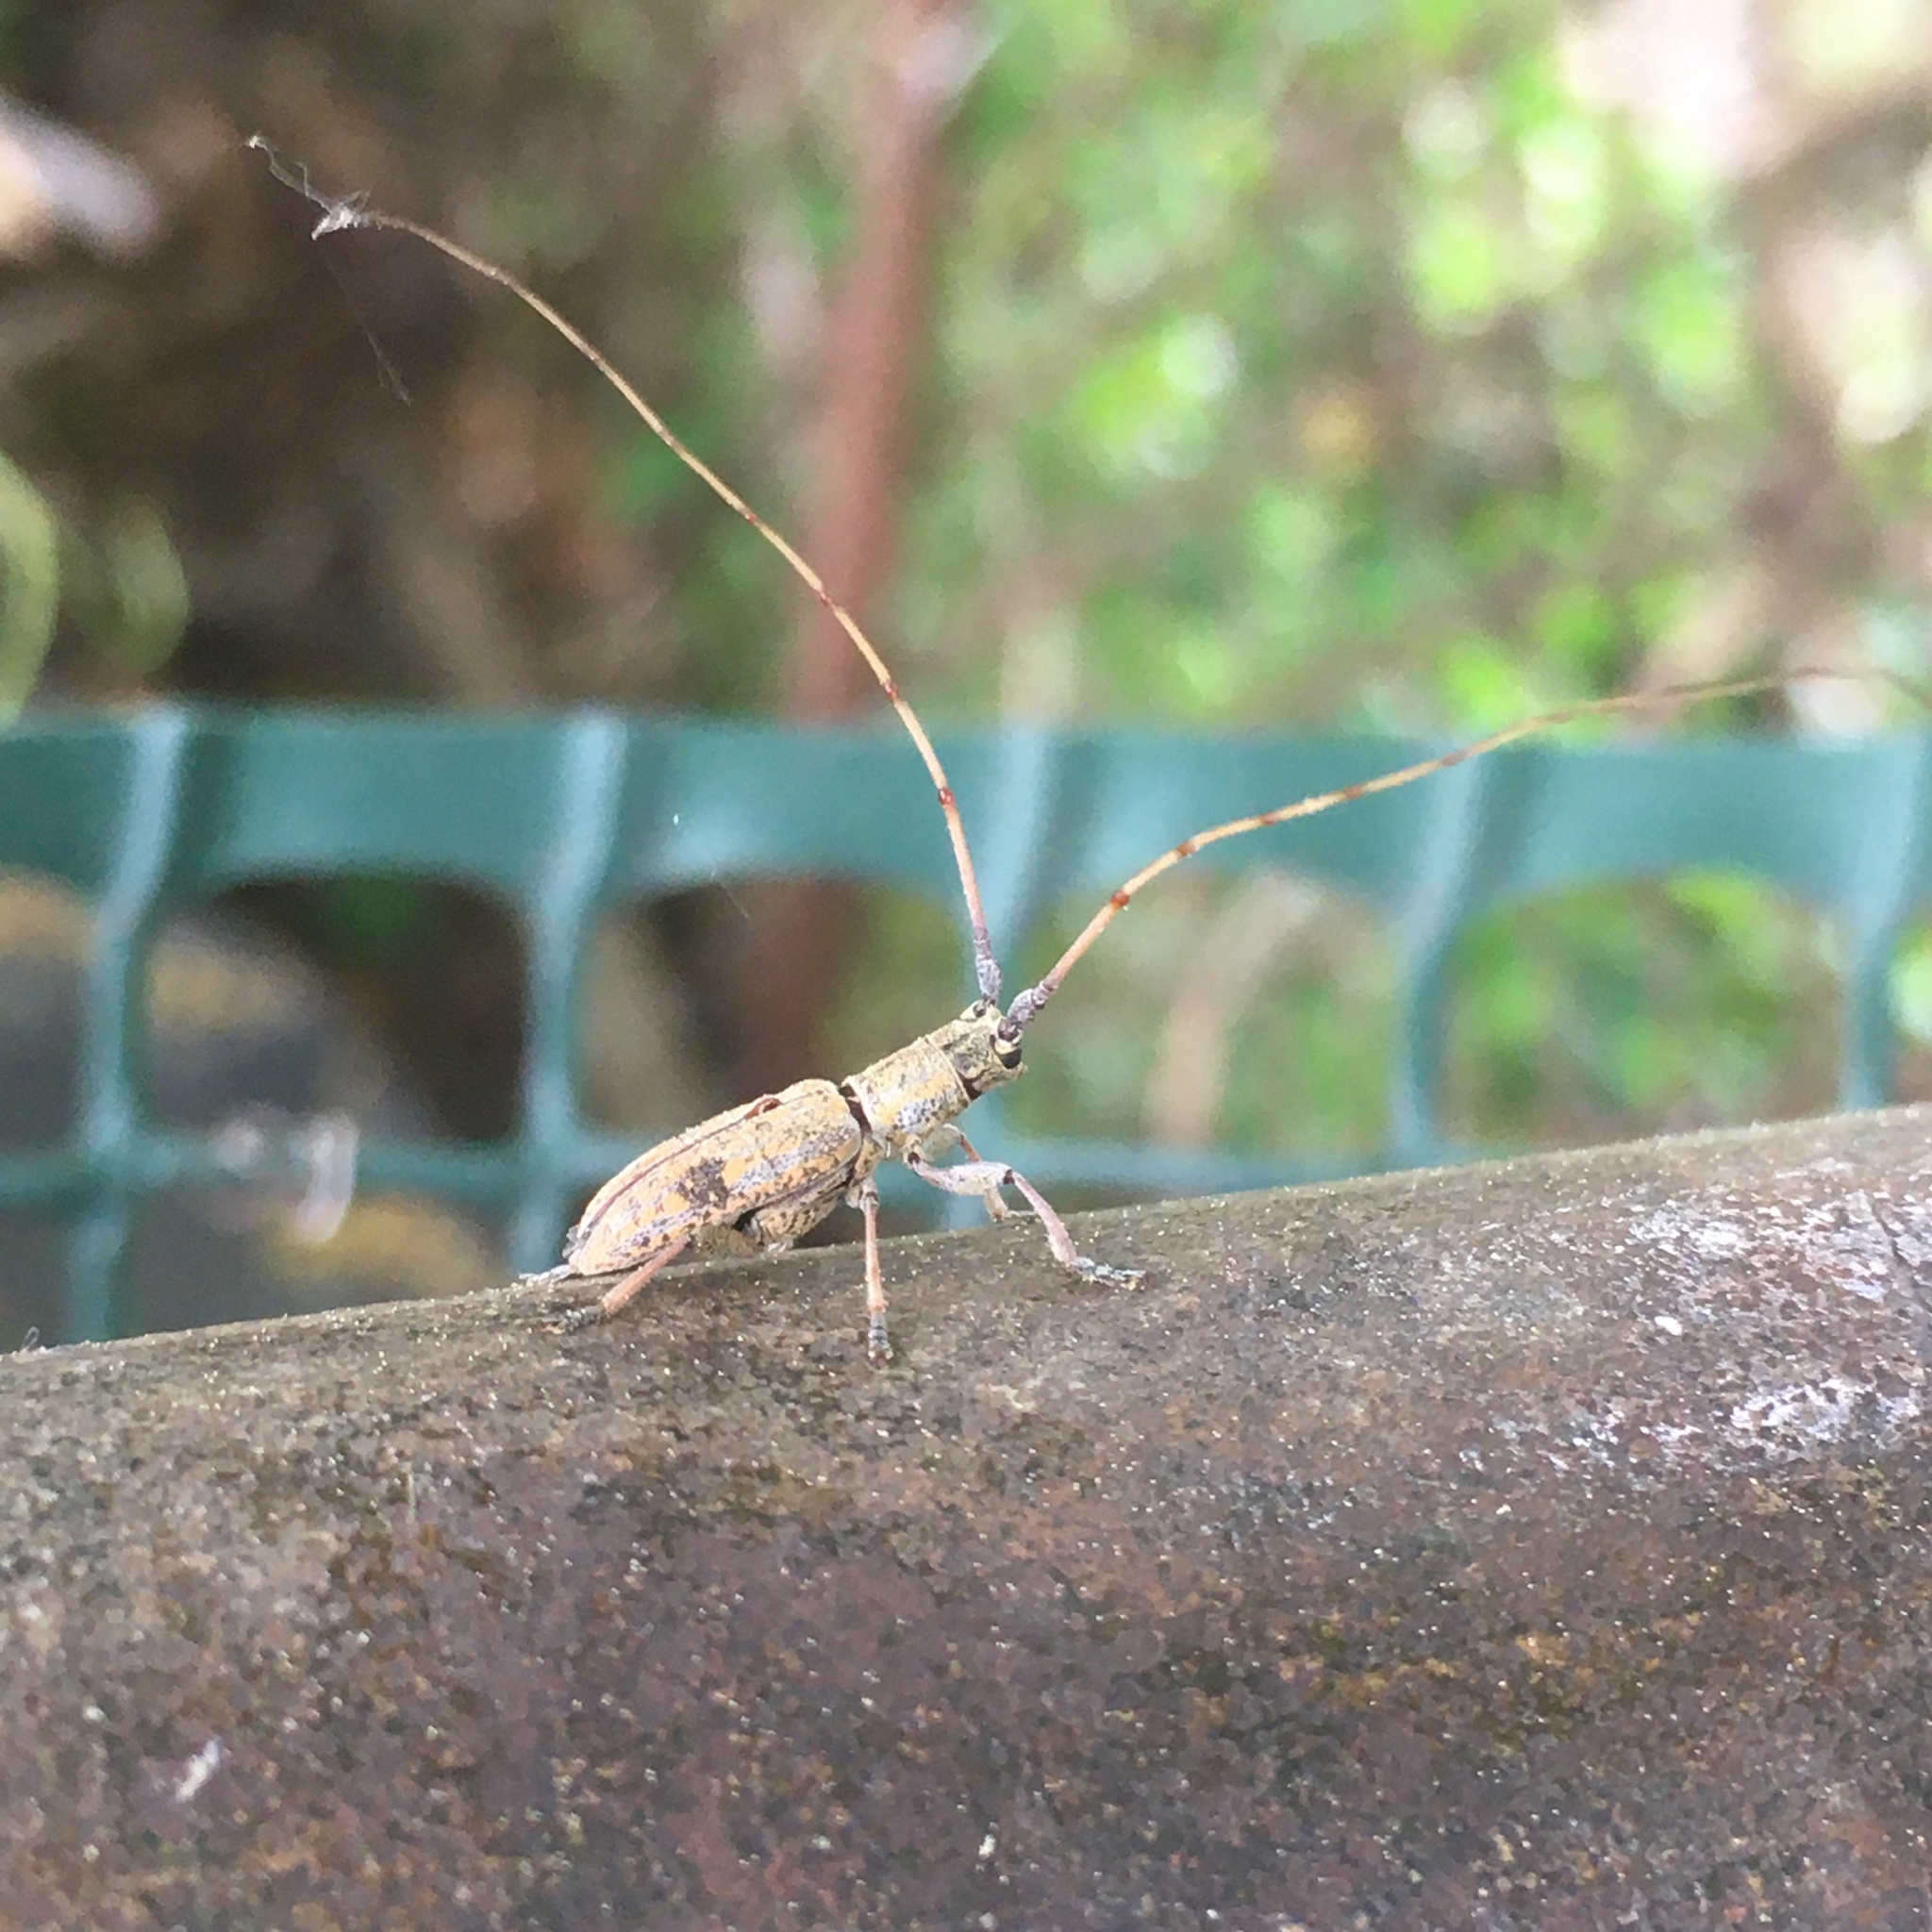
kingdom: Animalia
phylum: Arthropoda
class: Insecta
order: Coleoptera
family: Cerambycidae
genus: Dorcaschema
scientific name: Dorcaschema alternatum
